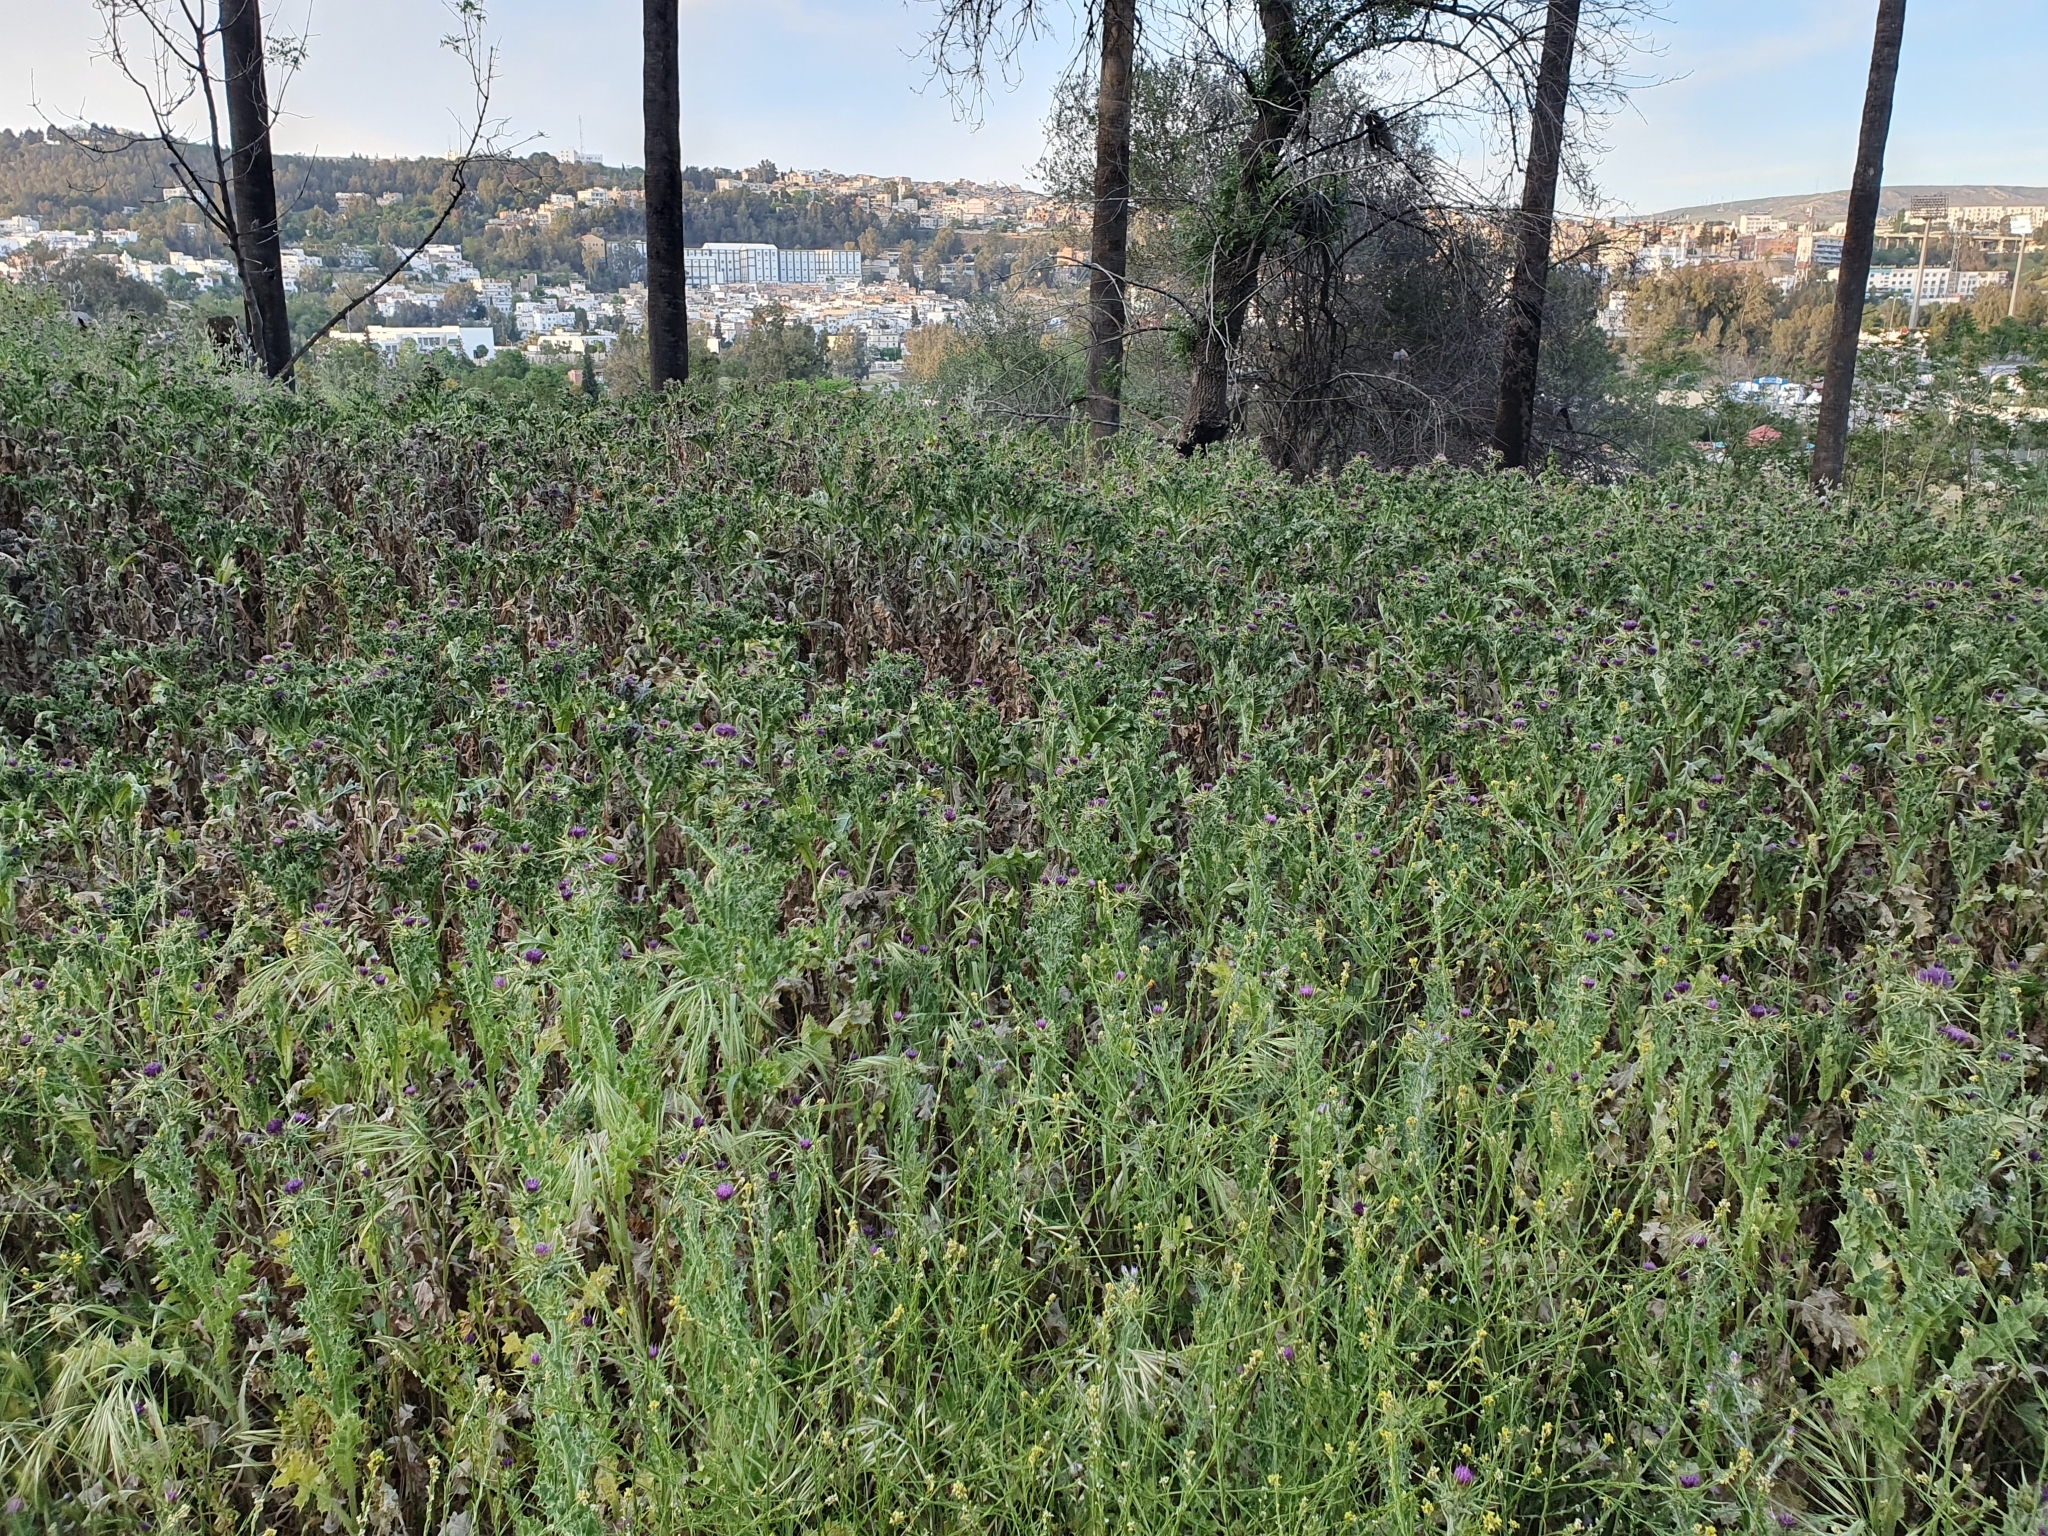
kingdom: Plantae
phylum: Tracheophyta
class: Magnoliopsida
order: Asterales
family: Asteraceae
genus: Silybum
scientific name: Silybum marianum
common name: Milk thistle
